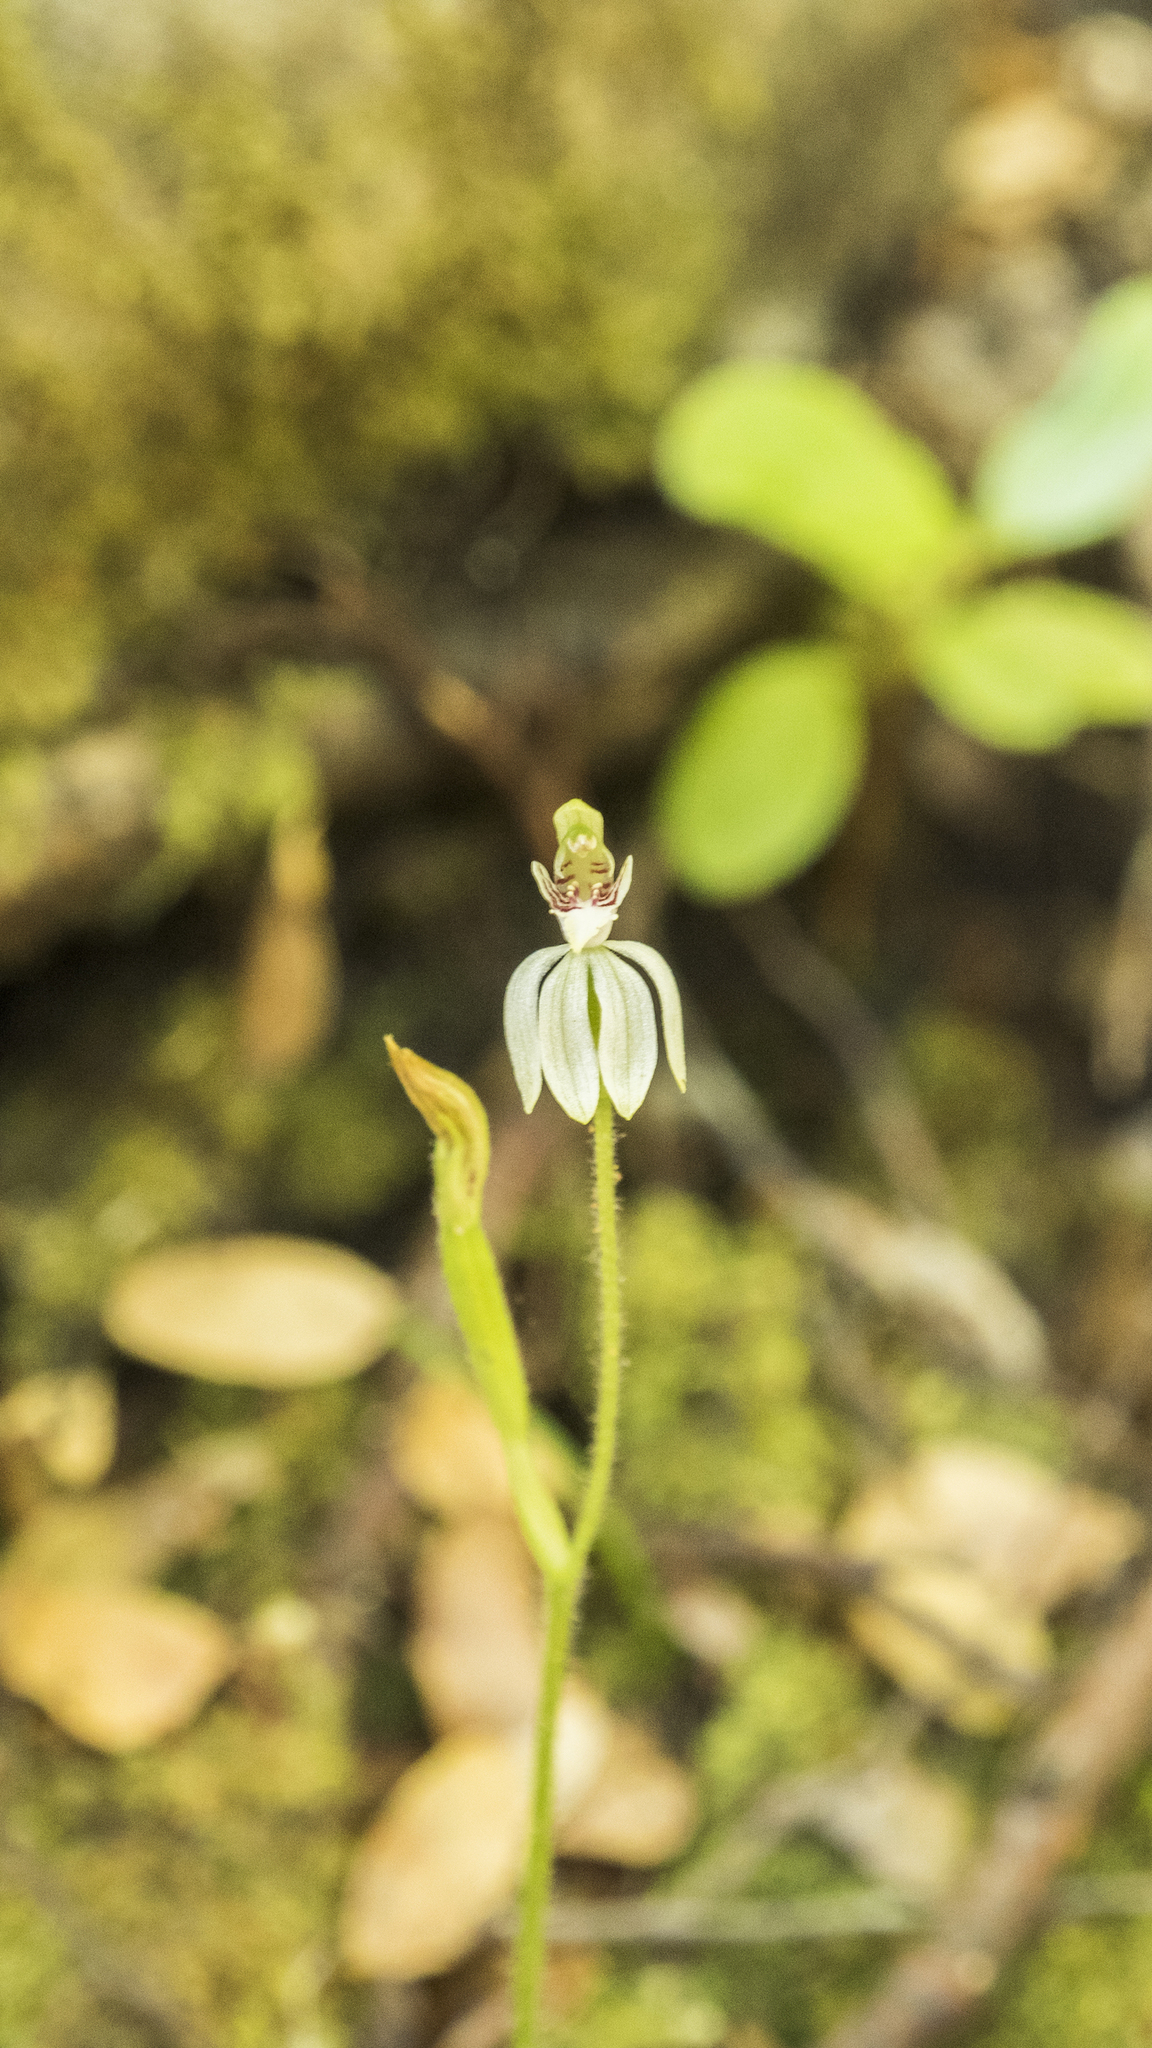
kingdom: Plantae
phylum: Tracheophyta
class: Liliopsida
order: Asparagales
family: Orchidaceae
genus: Caladenia
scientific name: Caladenia chlorostyla
